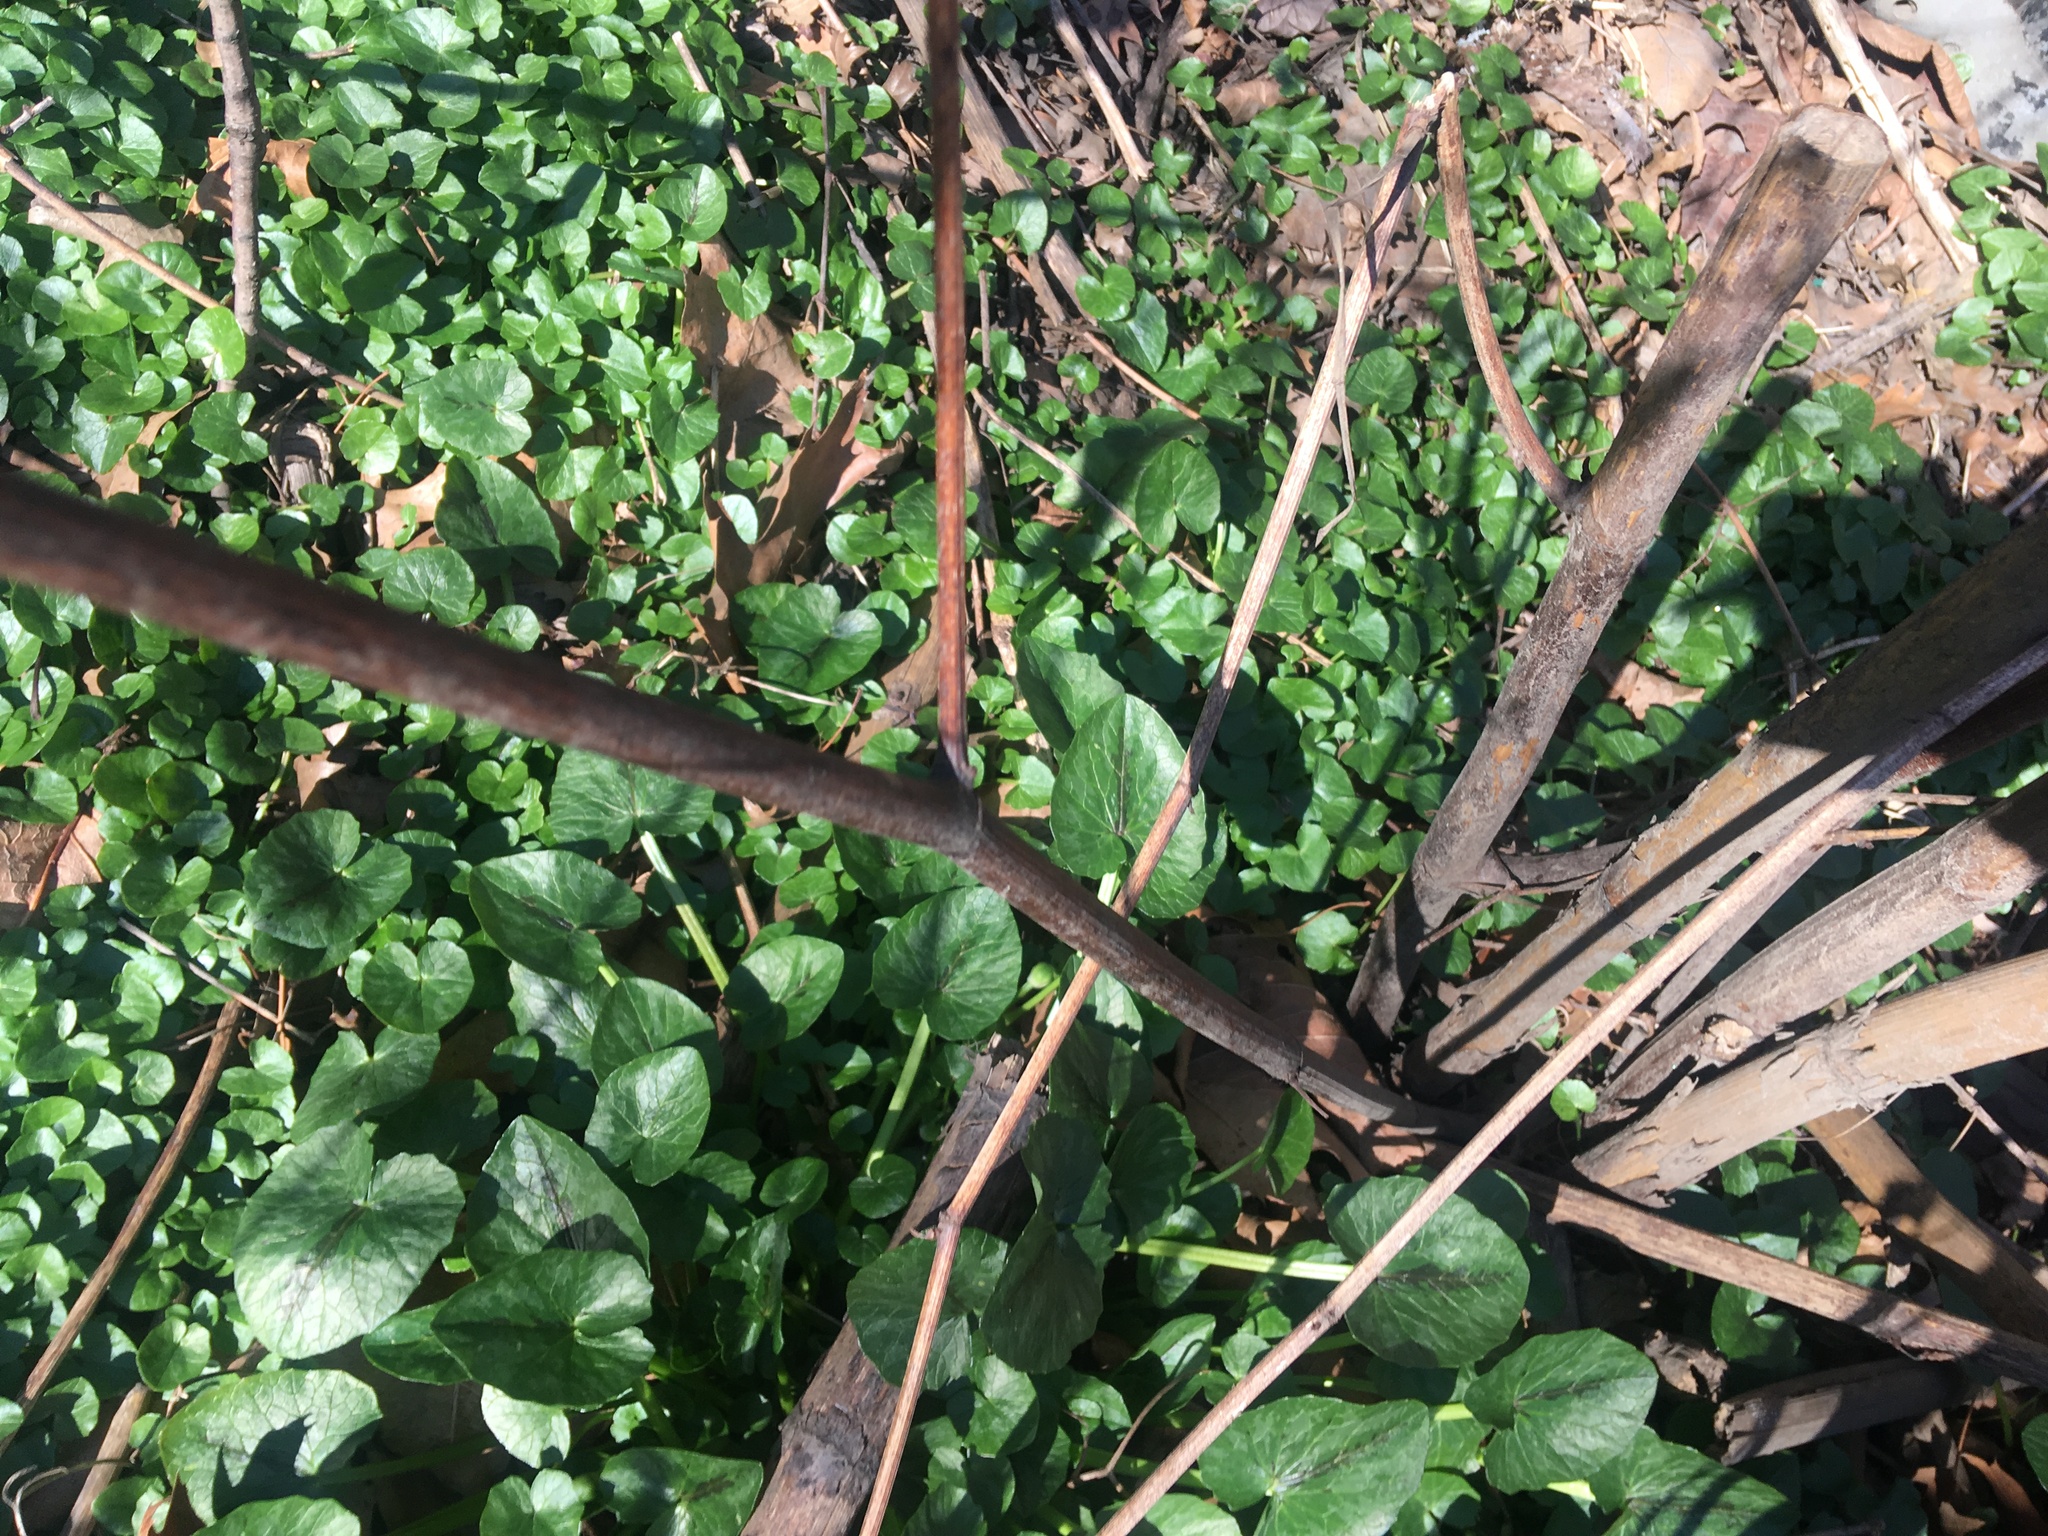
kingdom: Plantae
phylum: Tracheophyta
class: Magnoliopsida
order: Ranunculales
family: Ranunculaceae
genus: Ficaria
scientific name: Ficaria verna
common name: Lesser celandine
